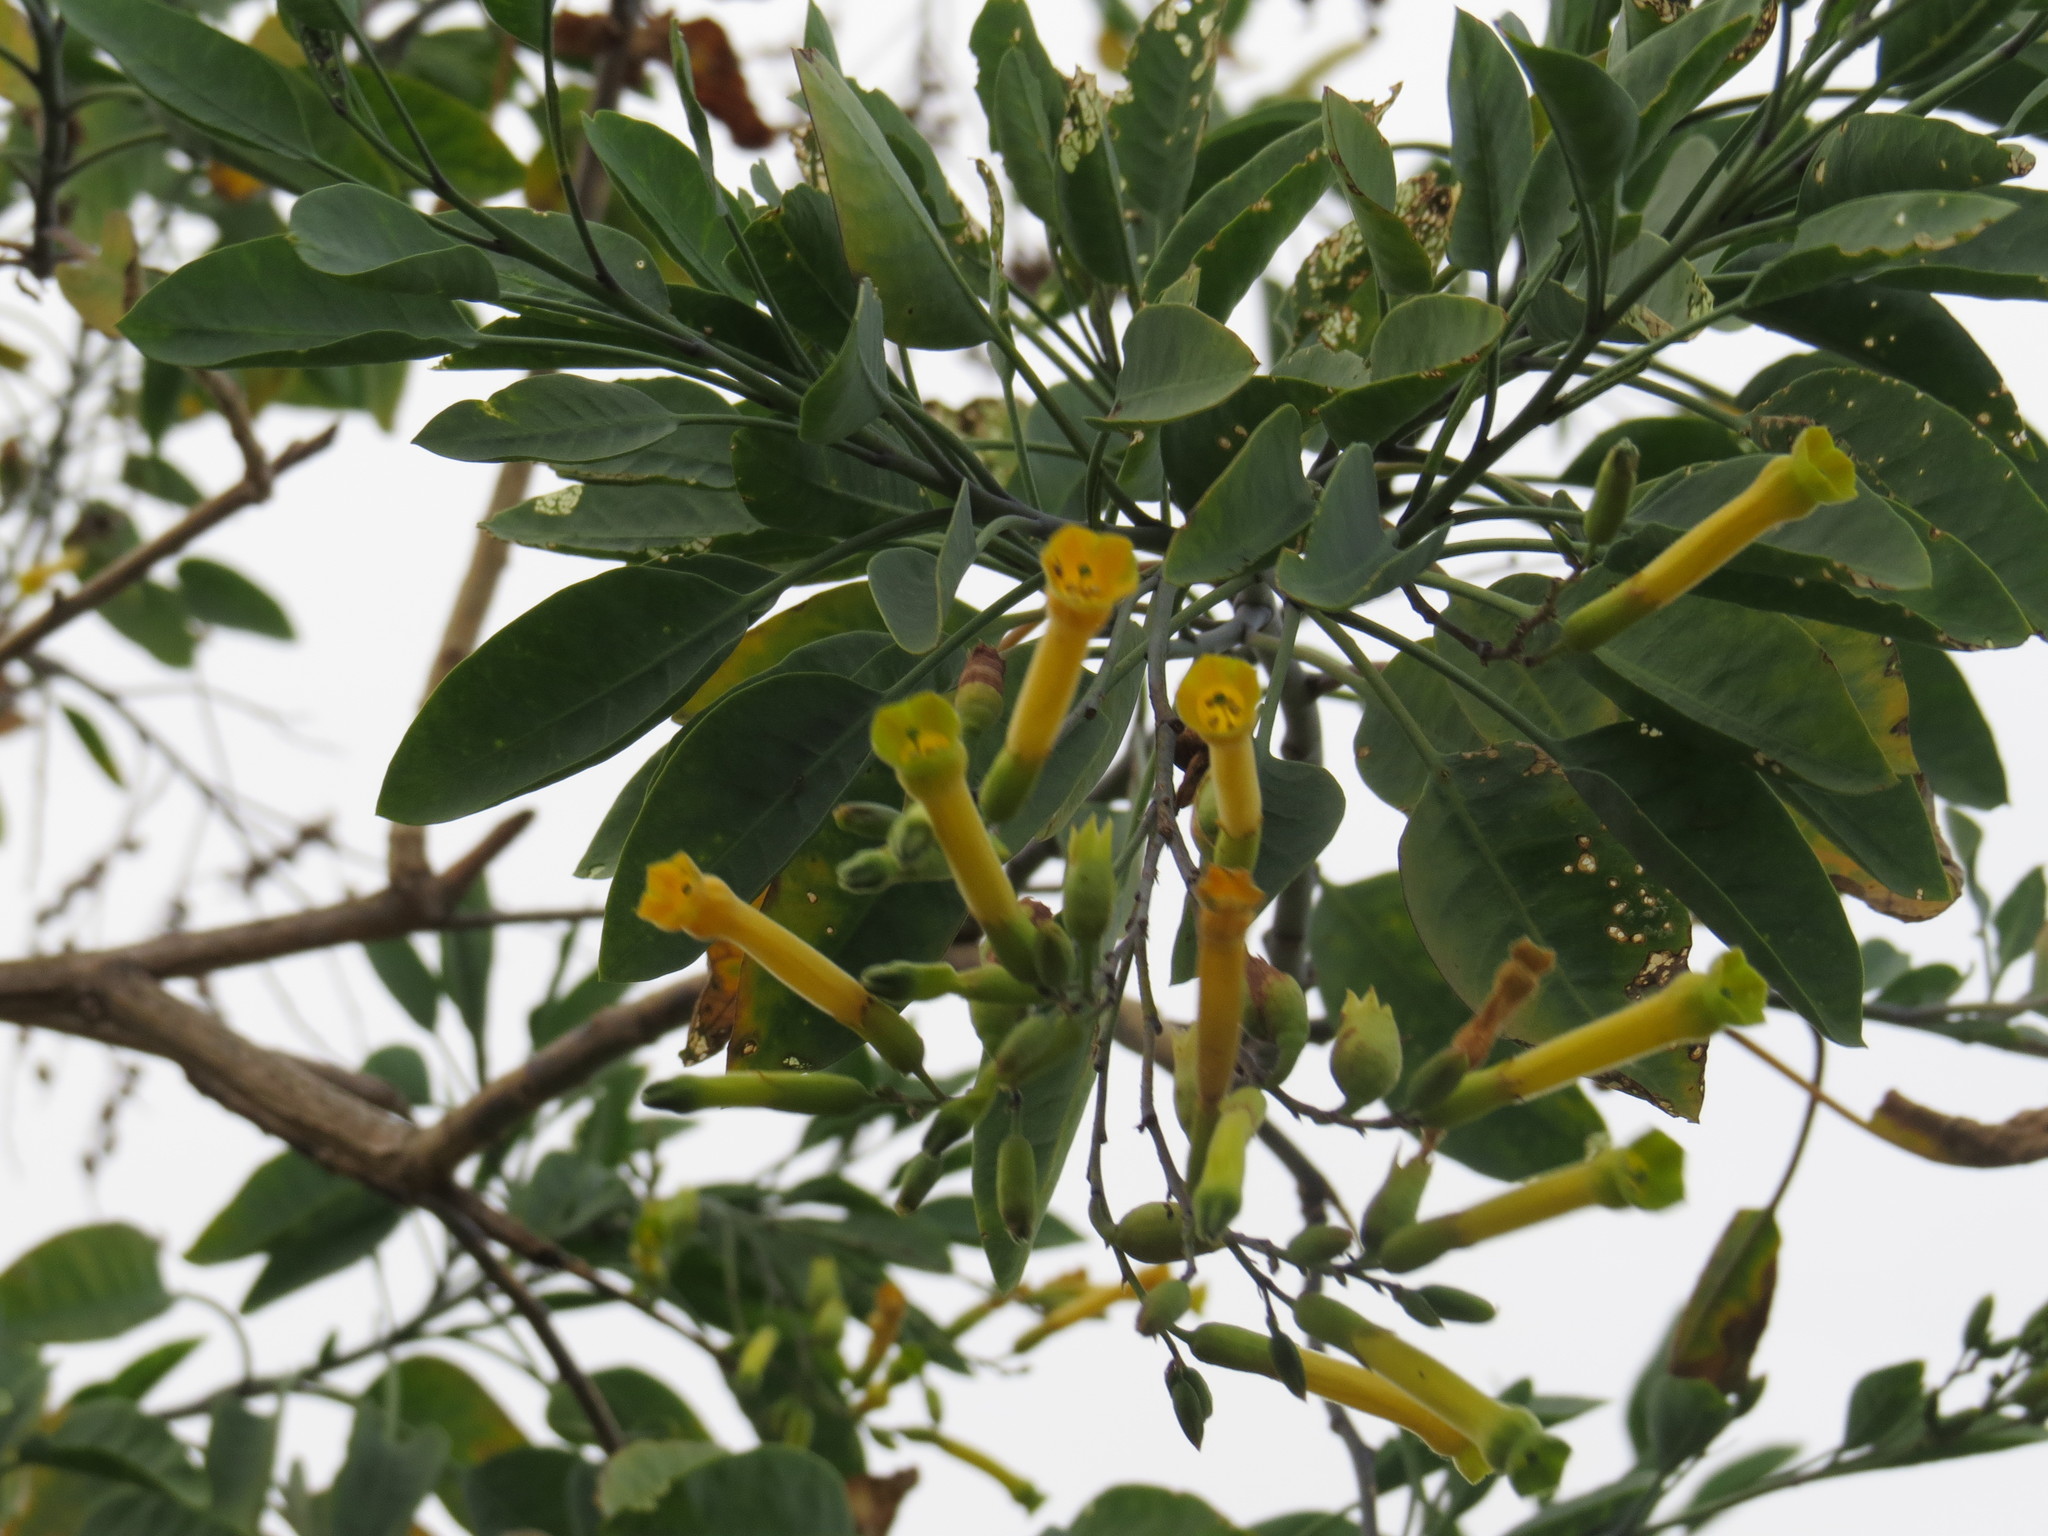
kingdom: Plantae
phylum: Tracheophyta
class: Magnoliopsida
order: Solanales
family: Solanaceae
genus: Nicotiana
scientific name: Nicotiana glauca
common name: Tree tobacco
